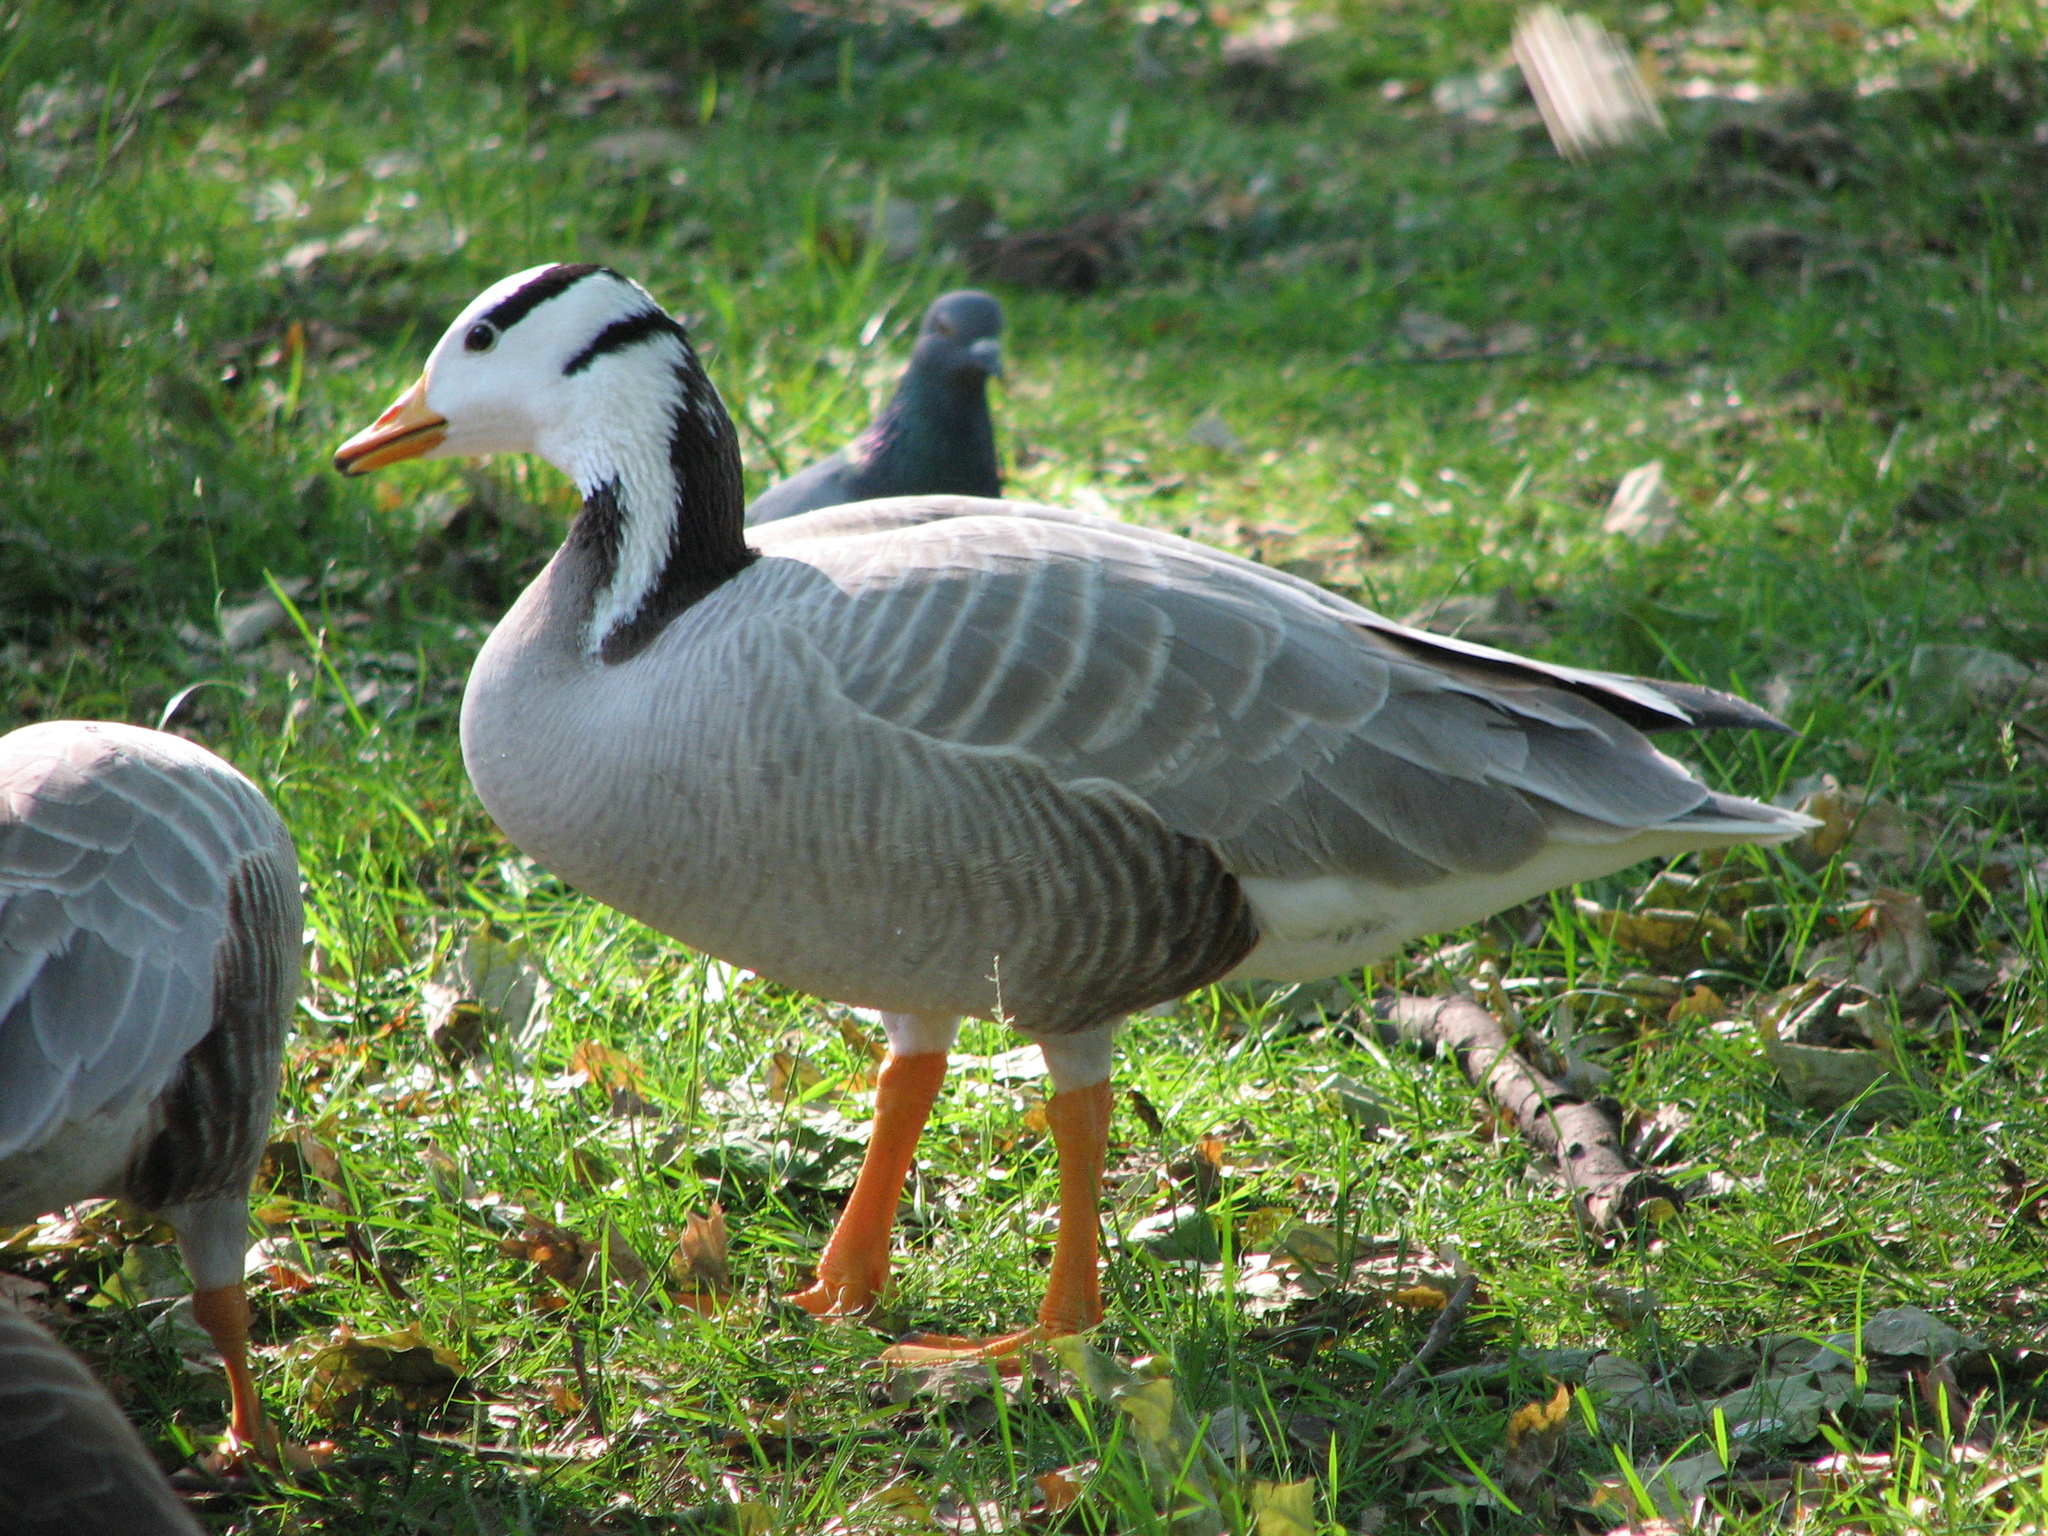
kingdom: Animalia
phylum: Chordata
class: Aves
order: Anseriformes
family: Anatidae
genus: Anser
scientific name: Anser indicus
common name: Bar-headed goose
